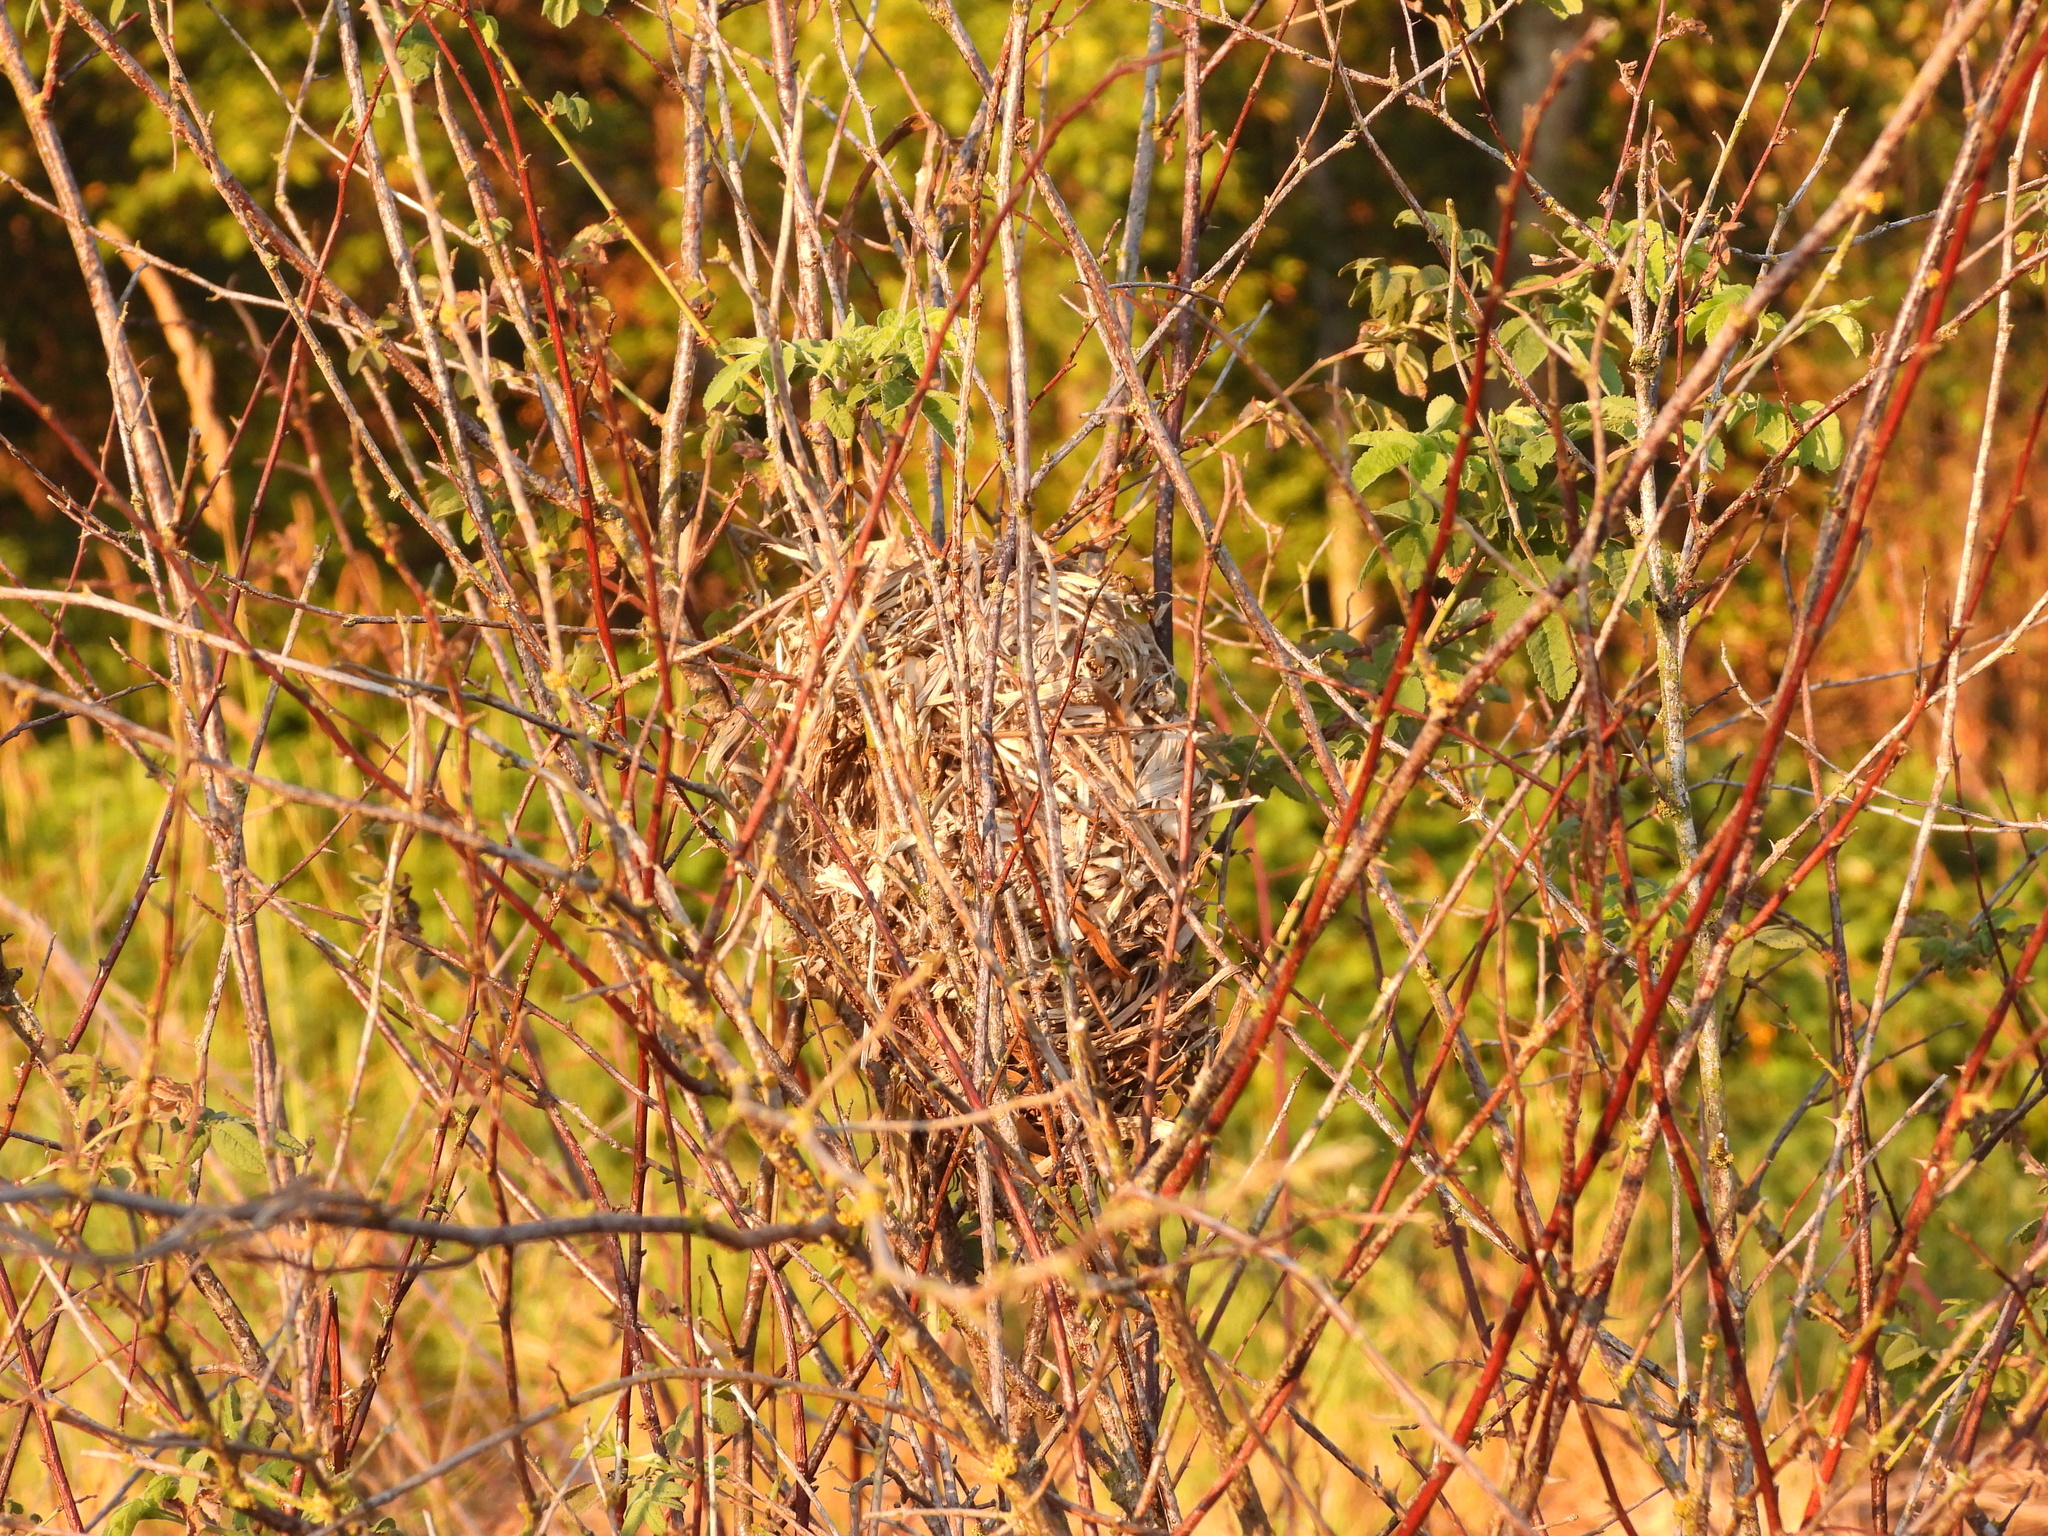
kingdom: Animalia
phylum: Chordata
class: Aves
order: Passeriformes
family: Troglodytidae
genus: Cistothorus
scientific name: Cistothorus palustris
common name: Marsh wren
